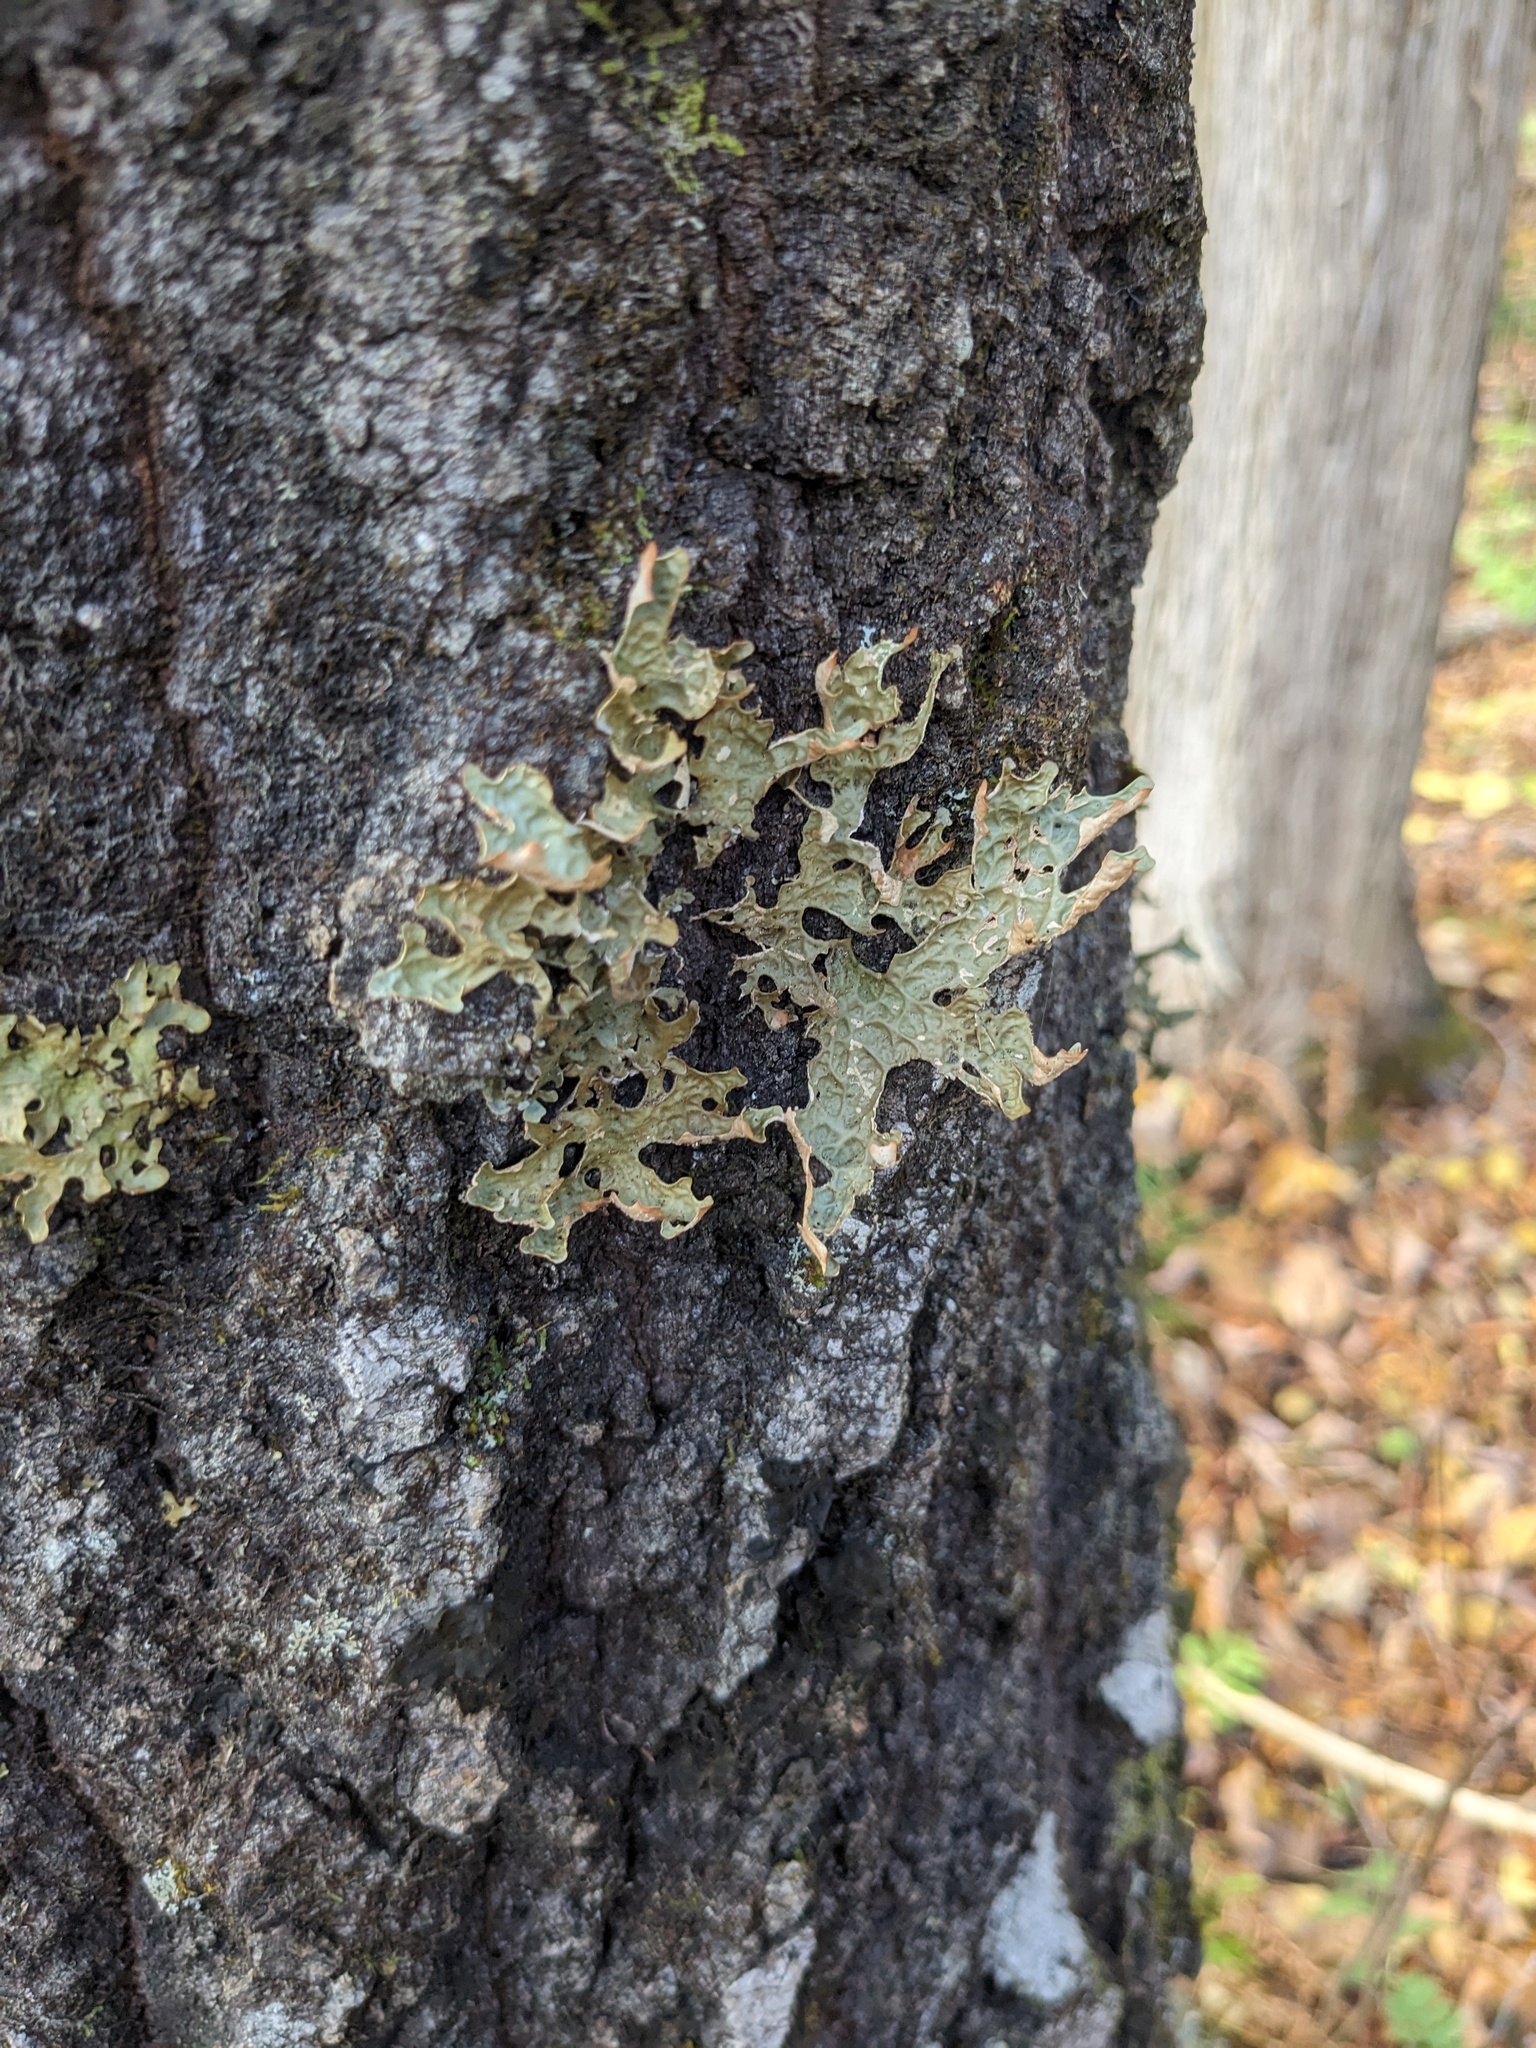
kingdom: Fungi
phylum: Ascomycota
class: Lecanoromycetes
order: Peltigerales
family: Lobariaceae
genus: Lobaria
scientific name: Lobaria pulmonaria
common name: Lungwort
